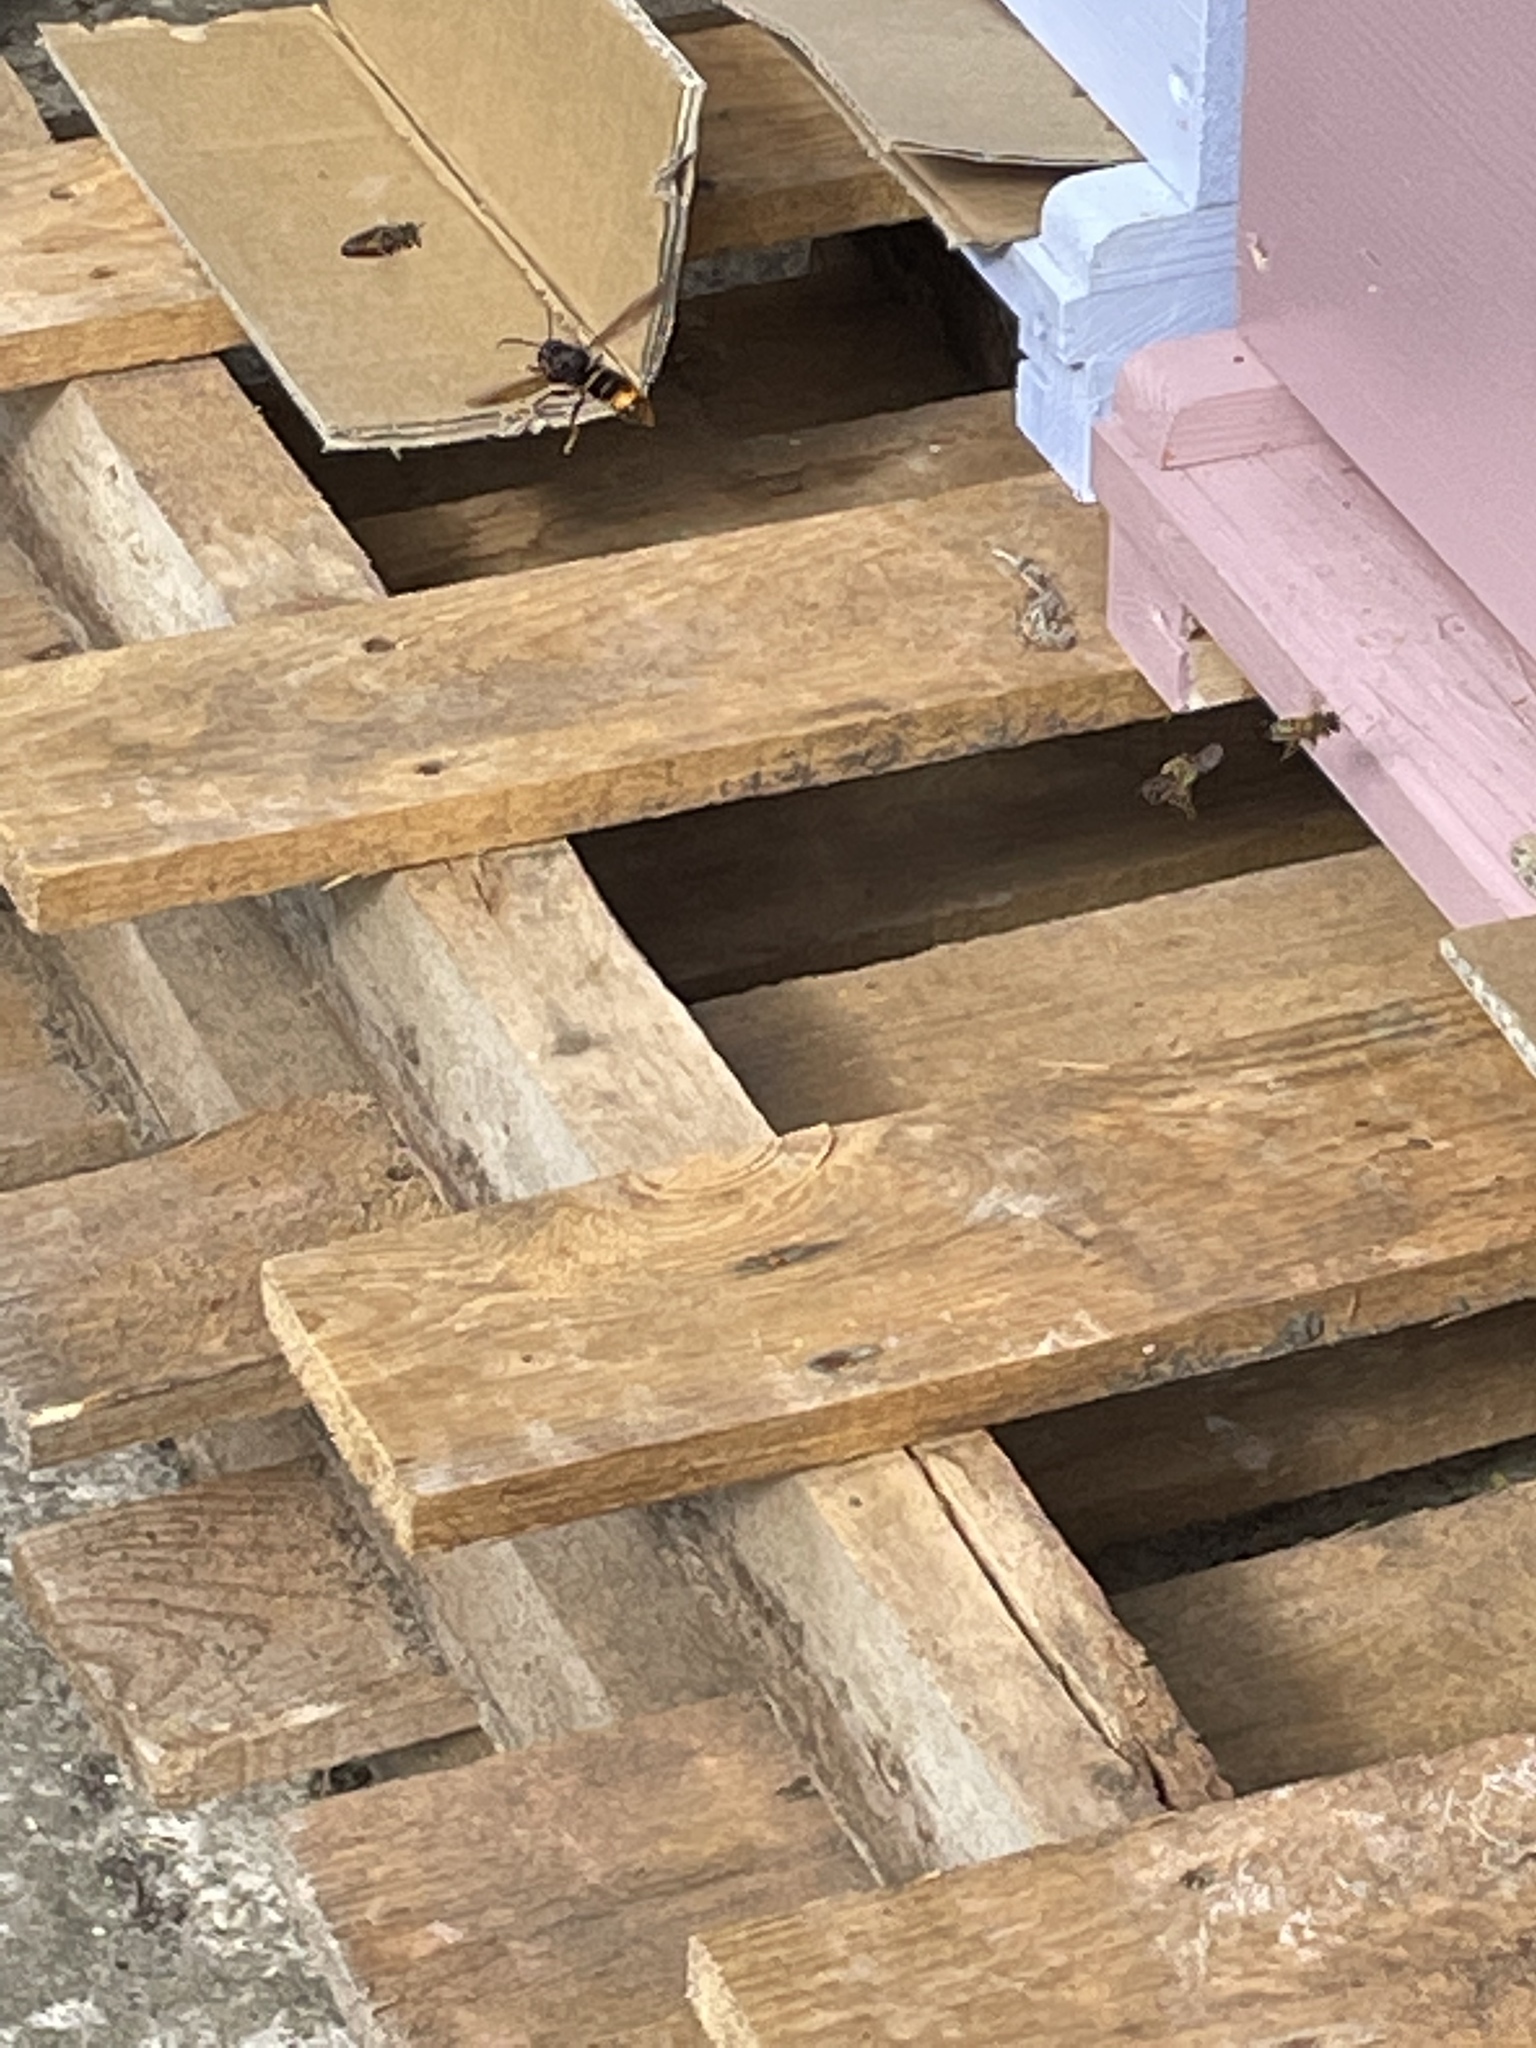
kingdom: Animalia
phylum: Arthropoda
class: Insecta
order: Hymenoptera
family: Vespidae
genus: Vespa
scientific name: Vespa velutina
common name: Asian hornet
